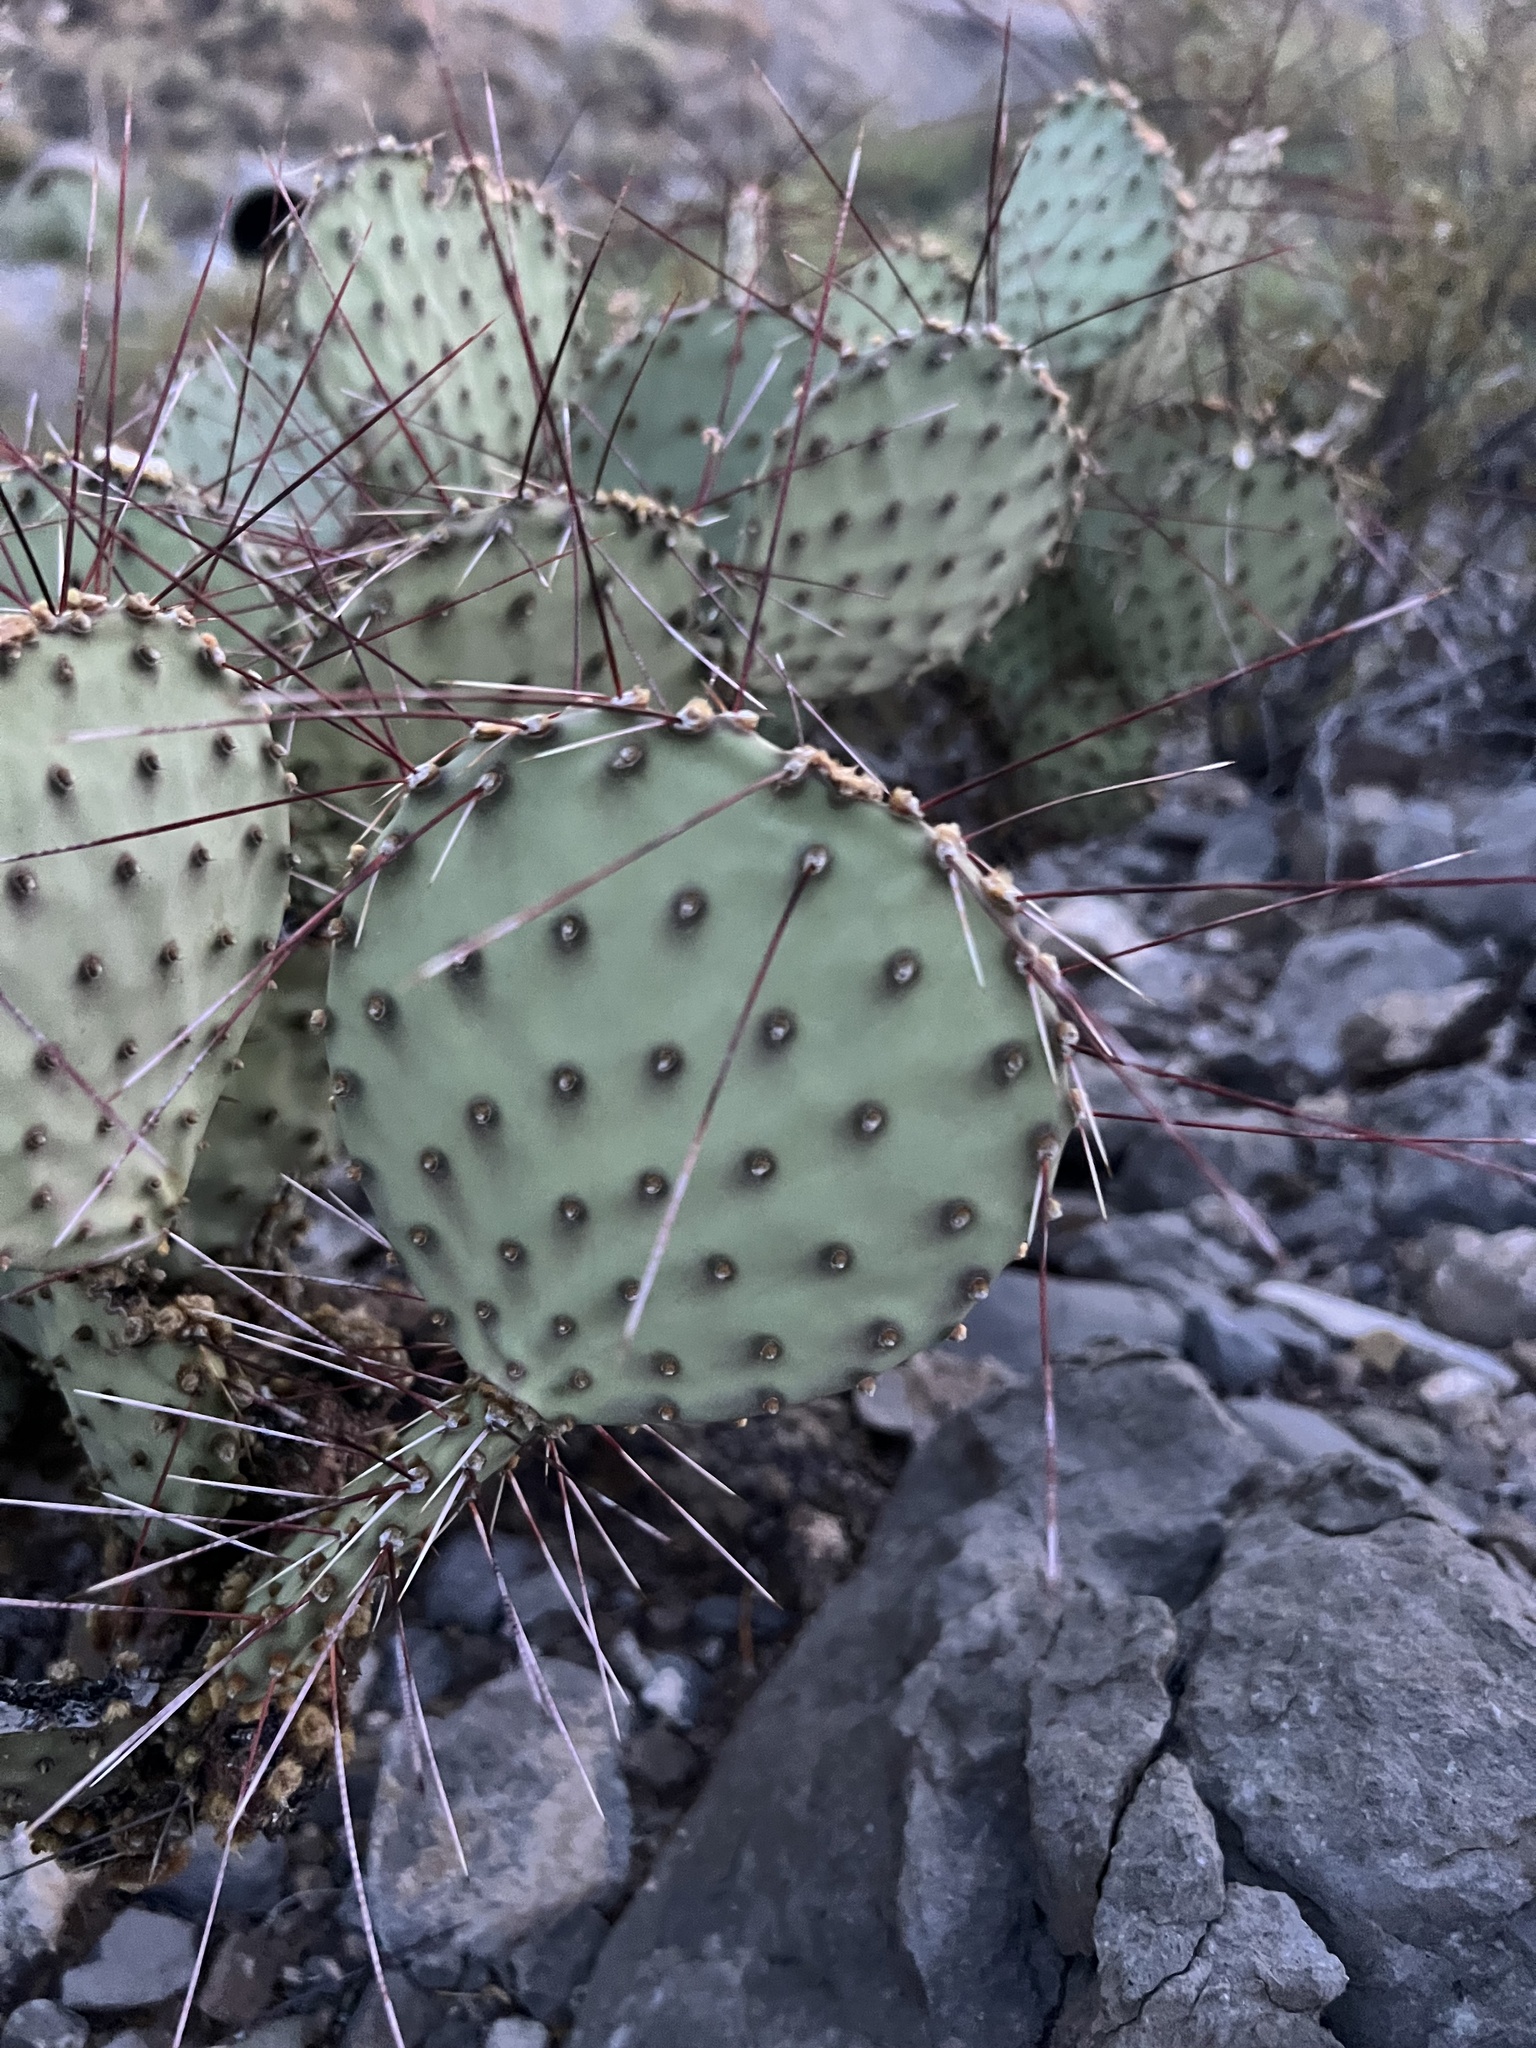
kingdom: Plantae
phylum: Tracheophyta
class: Magnoliopsida
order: Caryophyllales
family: Cactaceae
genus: Opuntia
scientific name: Opuntia macrocentra
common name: Purple prickly-pear
